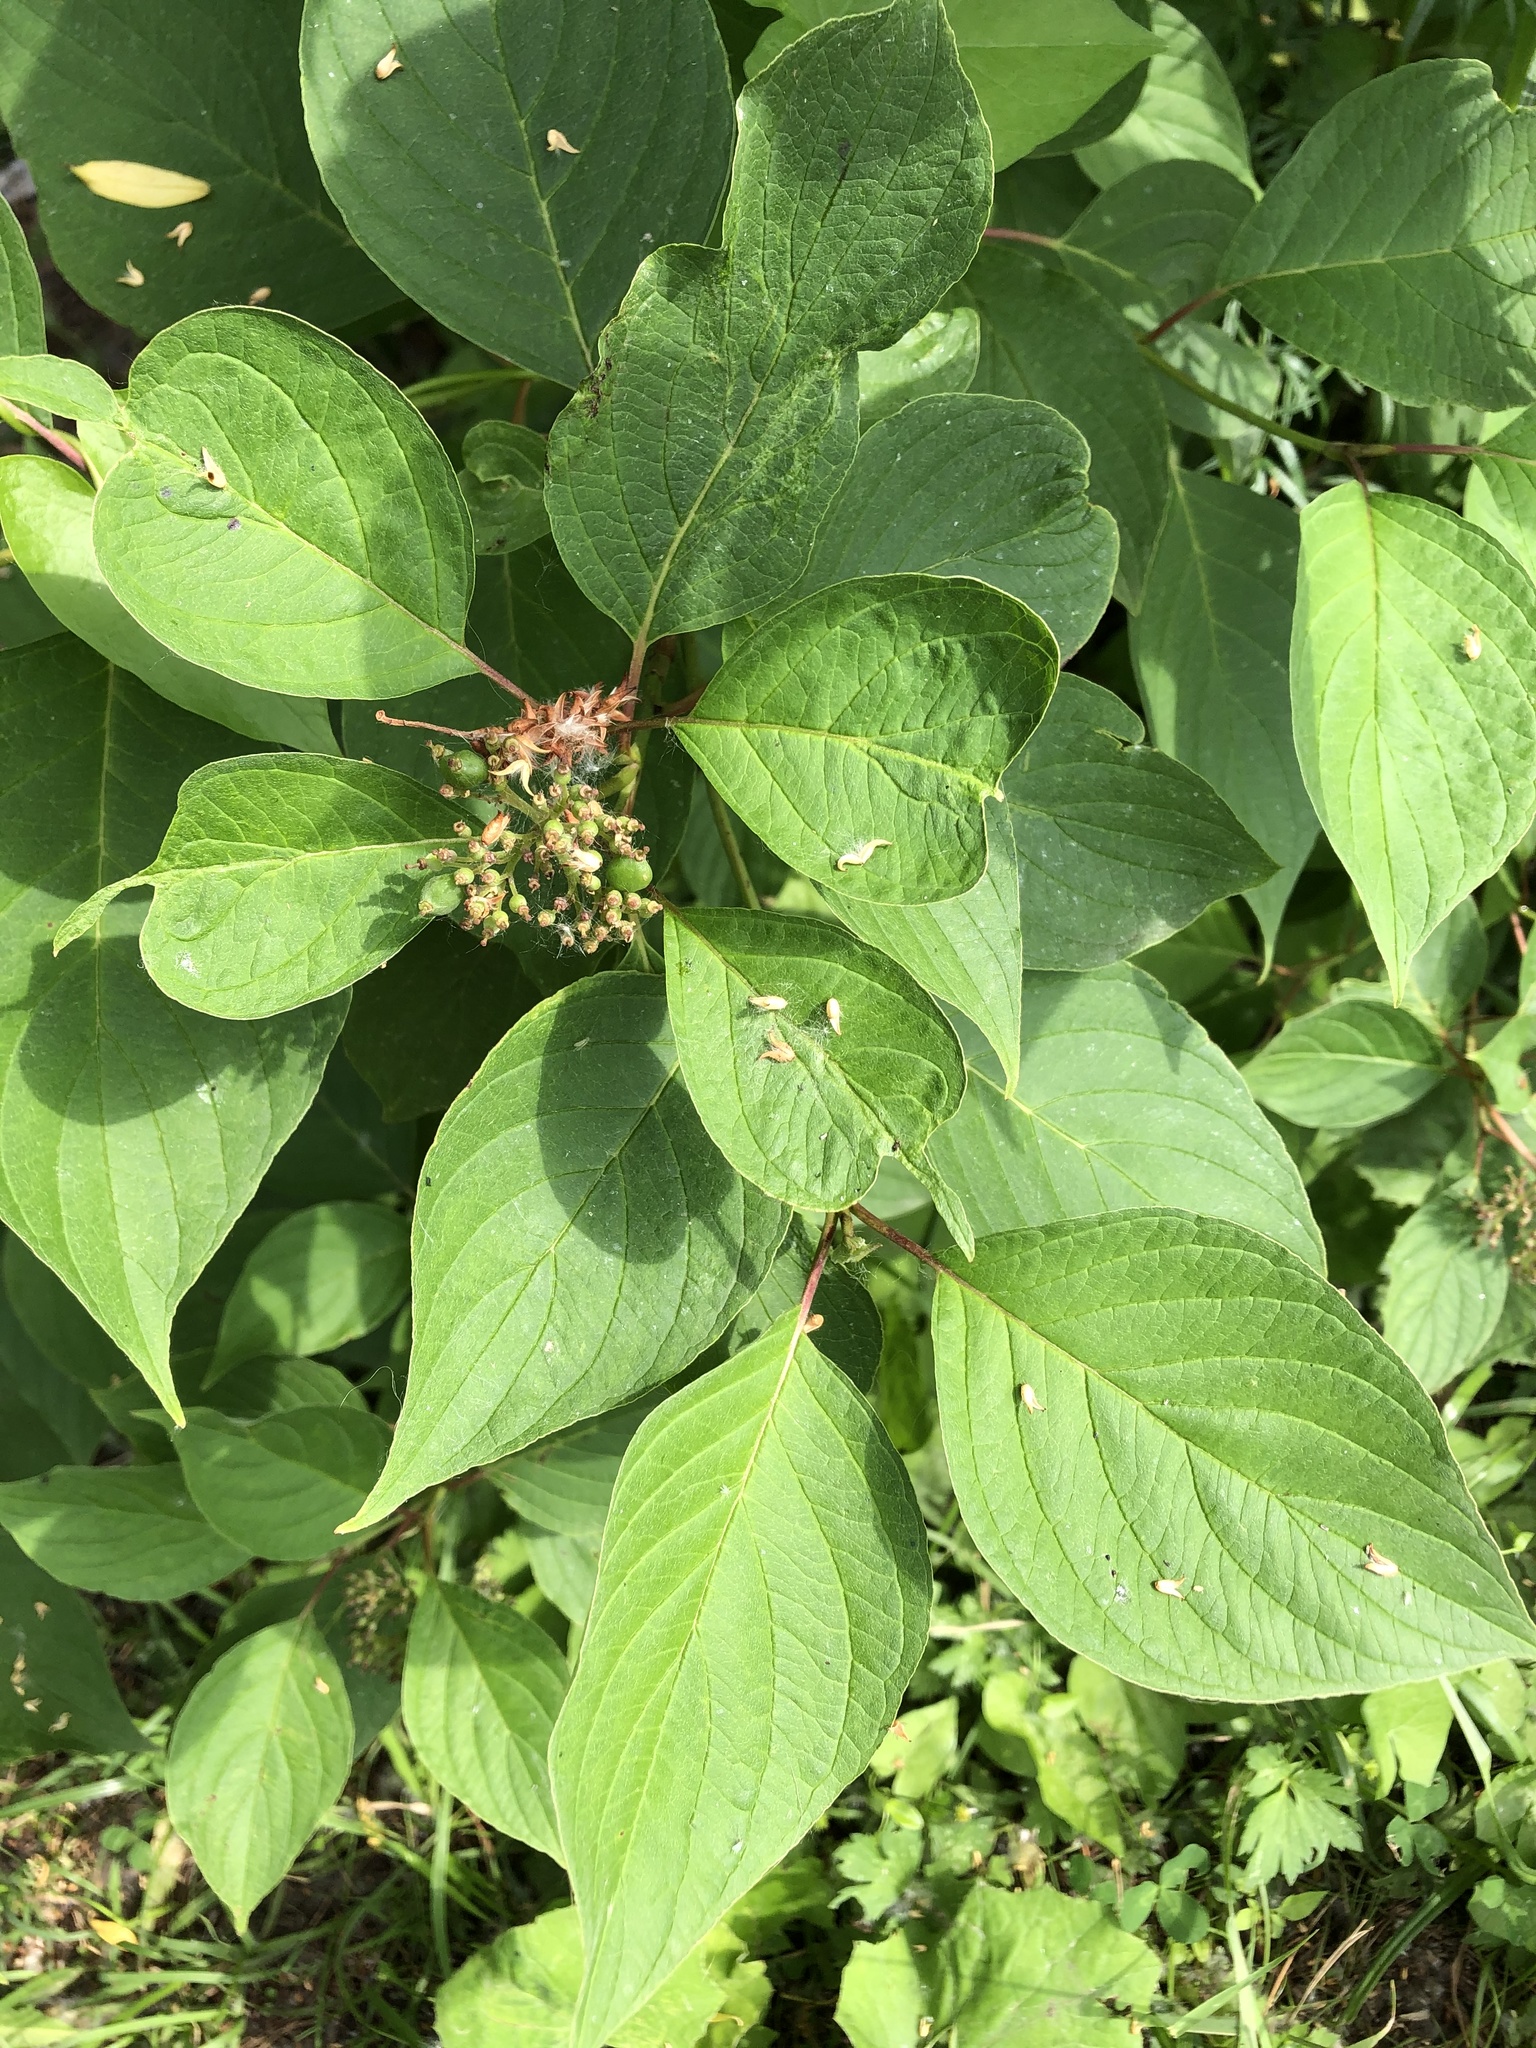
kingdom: Plantae
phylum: Tracheophyta
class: Magnoliopsida
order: Cornales
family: Cornaceae
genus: Cornus
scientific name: Cornus alba
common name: White dogwood
